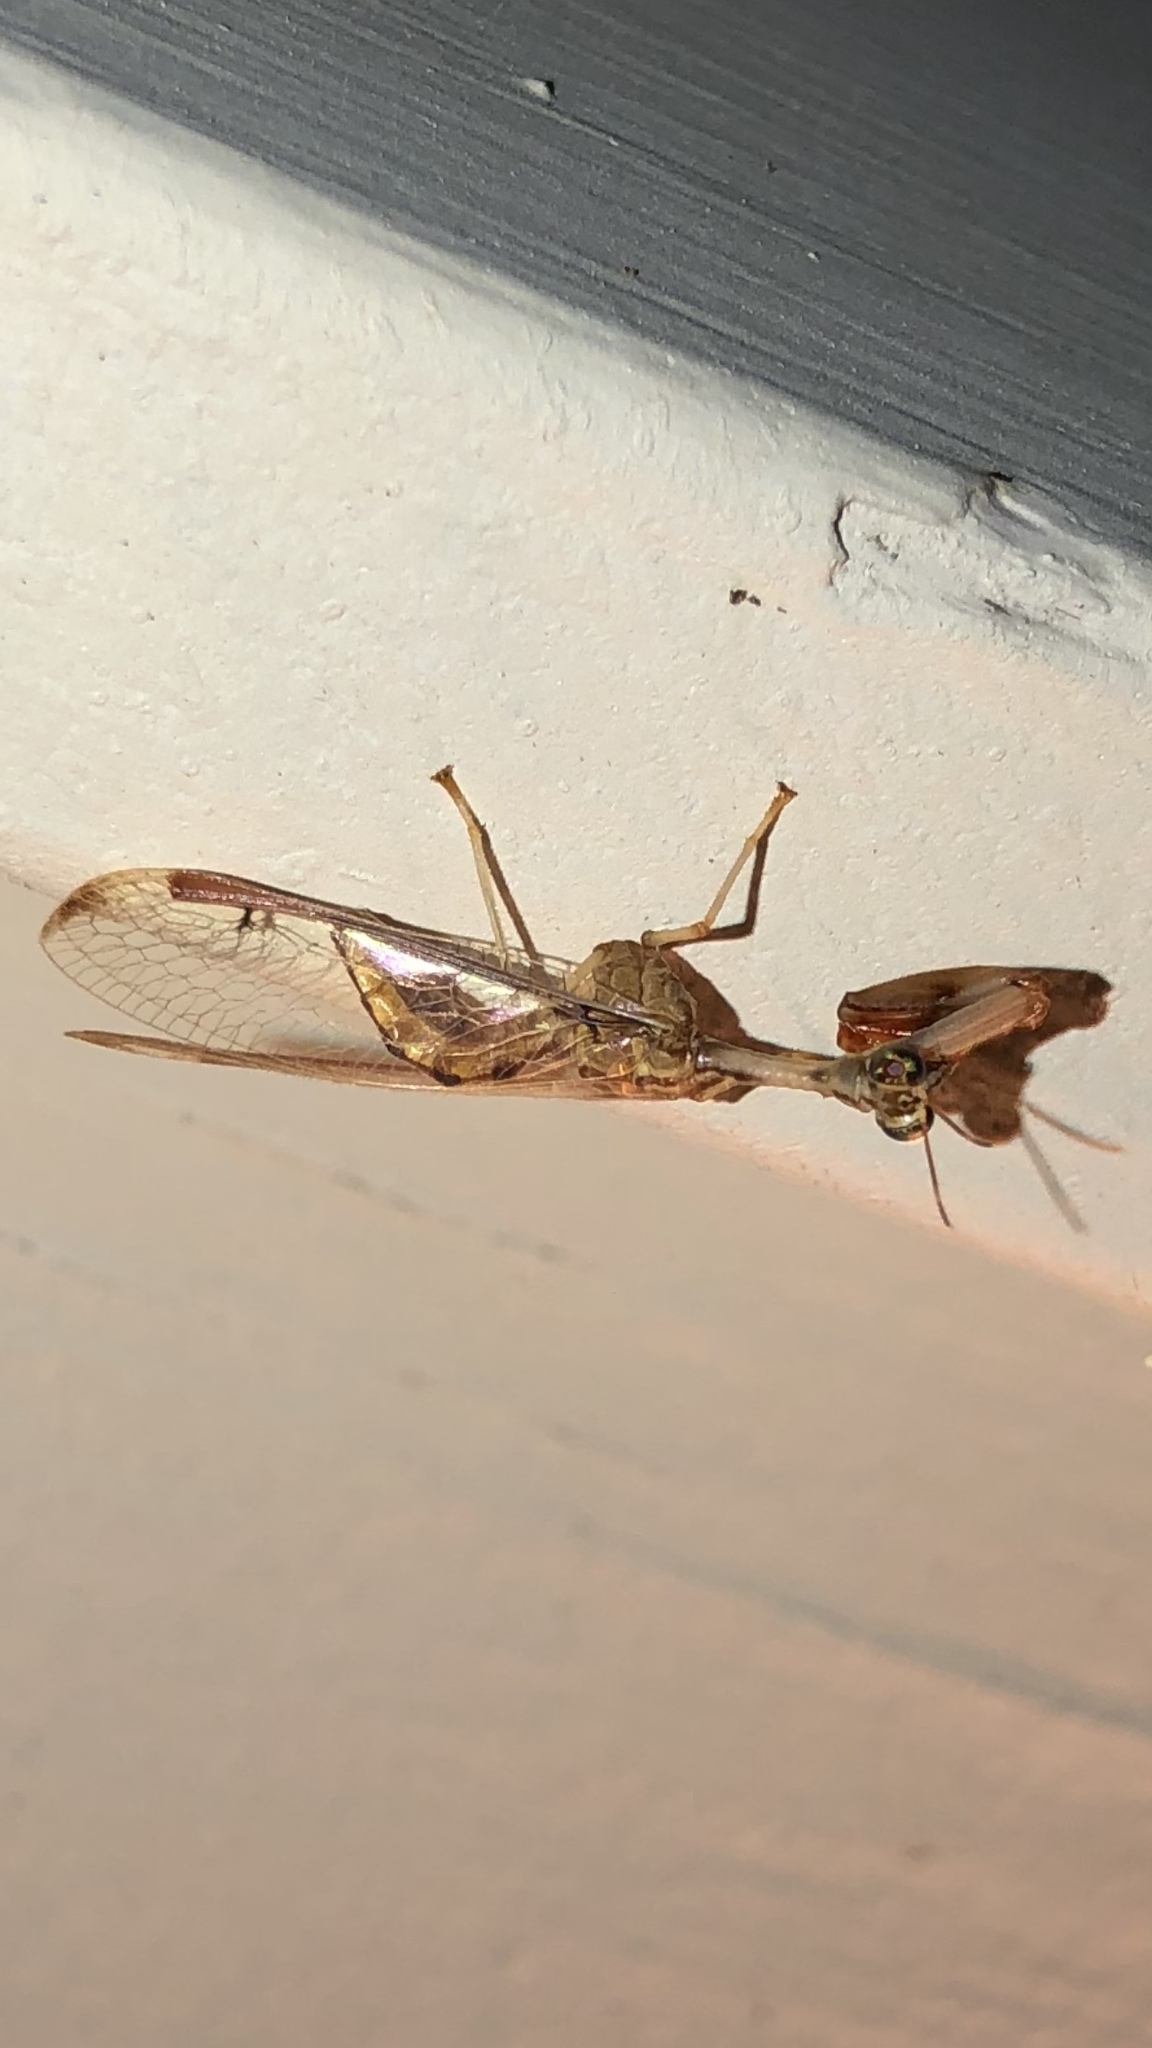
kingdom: Animalia
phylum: Arthropoda
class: Insecta
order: Neuroptera
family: Mantispidae
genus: Dicromantispa
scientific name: Dicromantispa interrupta
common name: Four-spotted mantidfly
